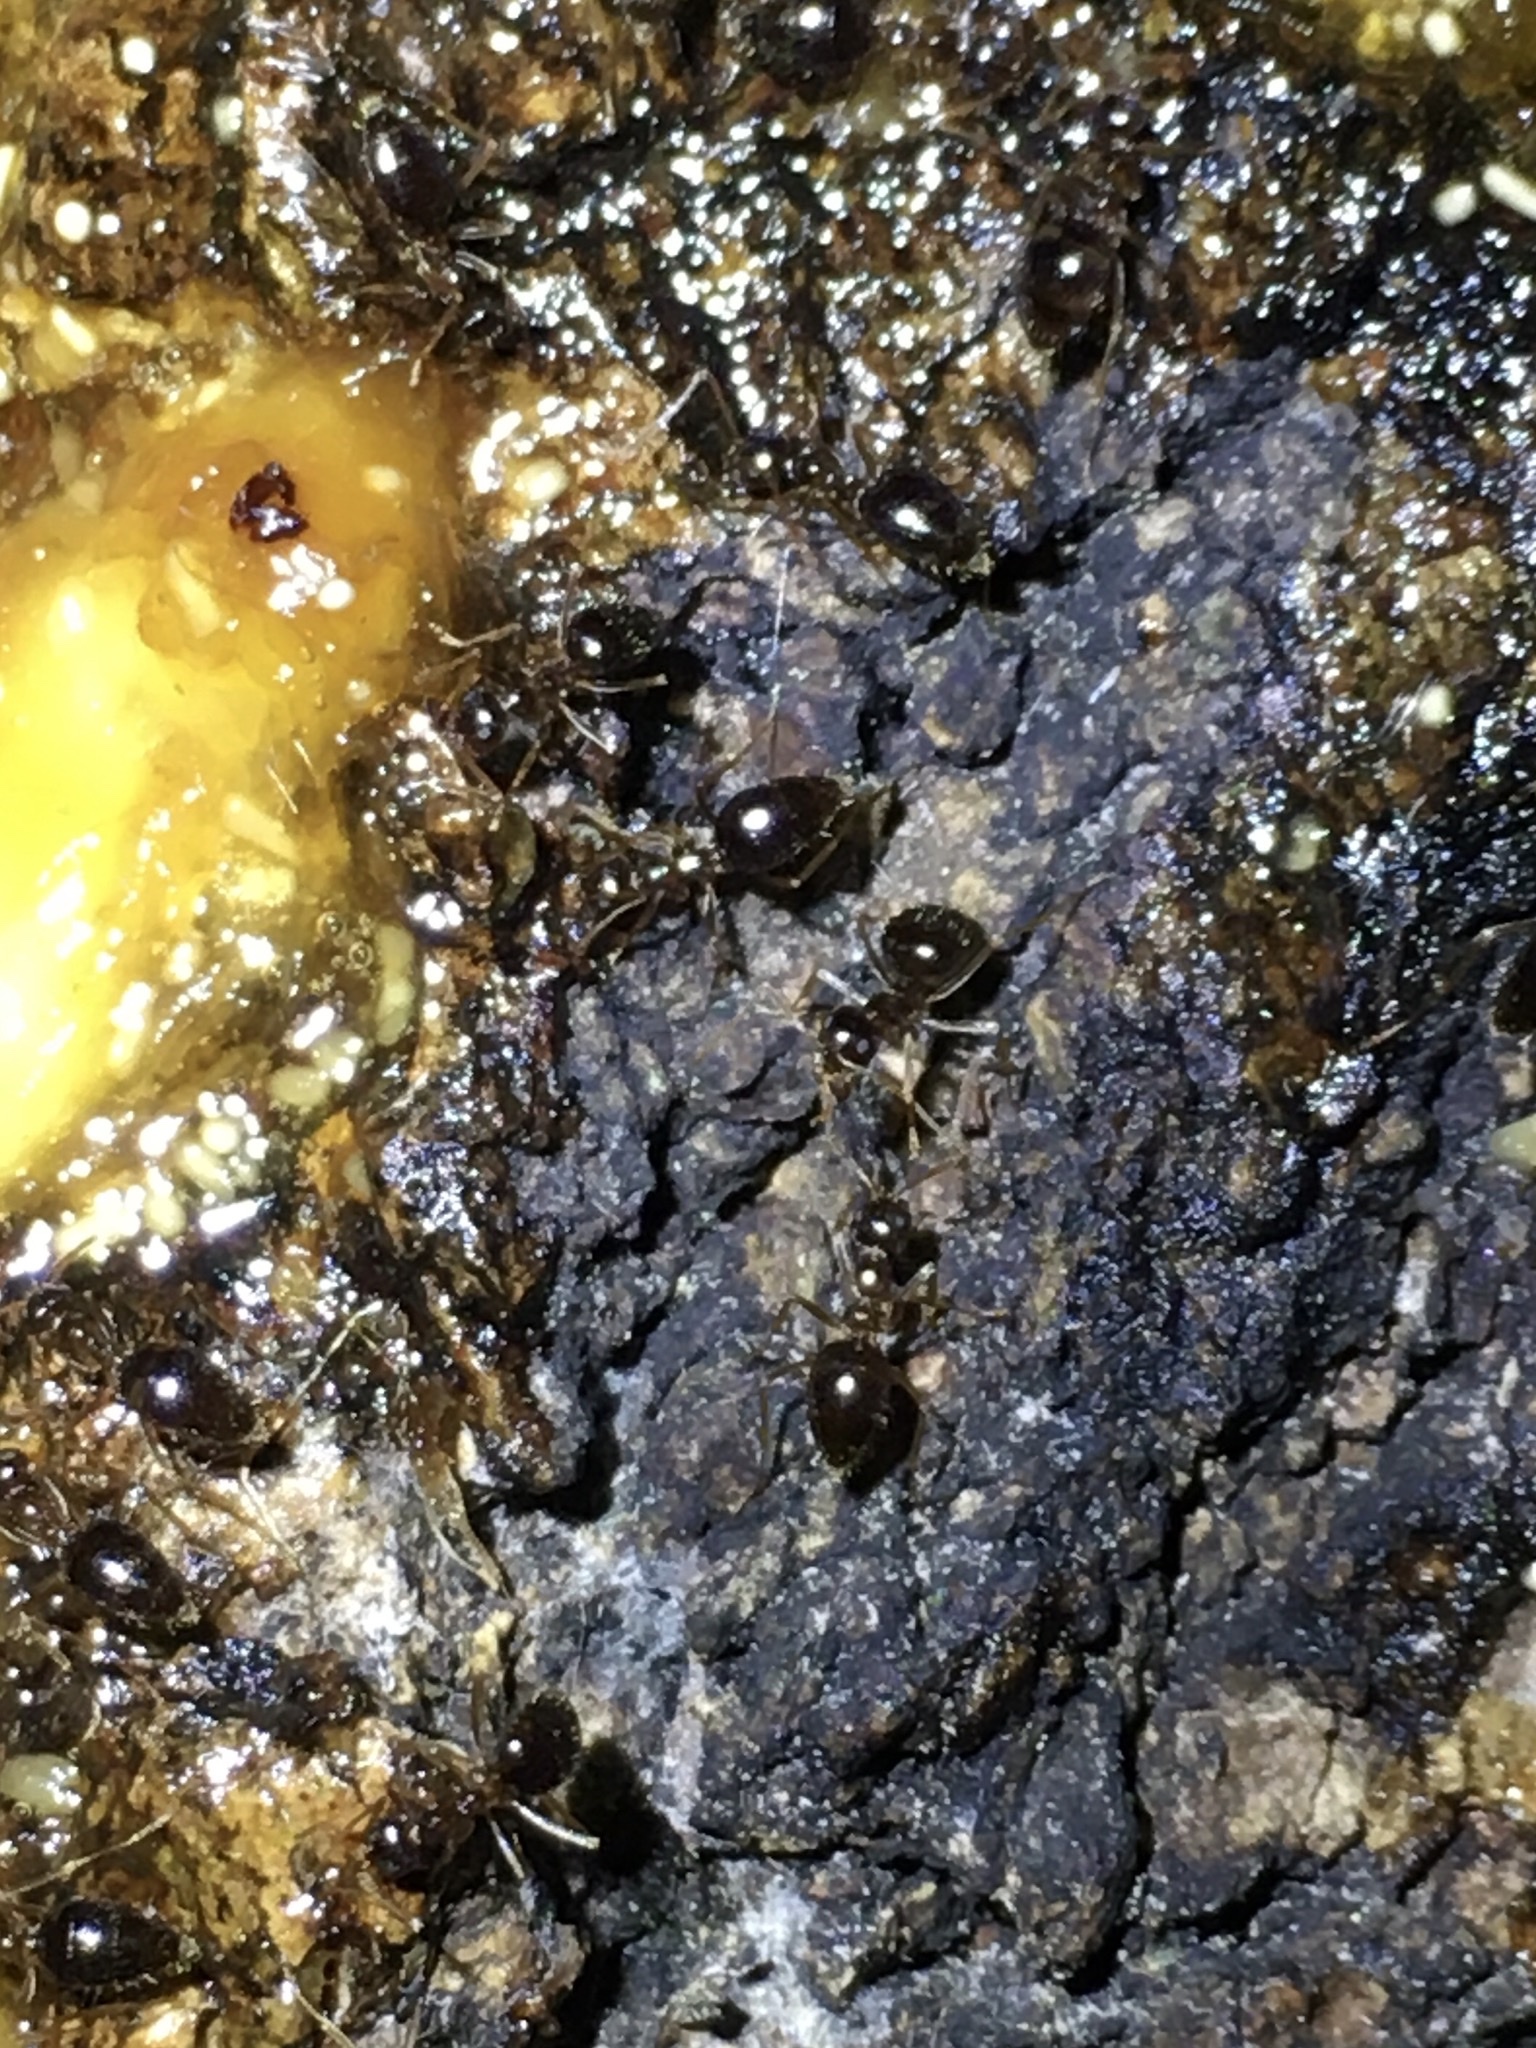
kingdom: Animalia
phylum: Arthropoda
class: Insecta
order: Hymenoptera
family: Formicidae
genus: Prenolepis
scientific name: Prenolepis imparis
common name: Small honey ant
